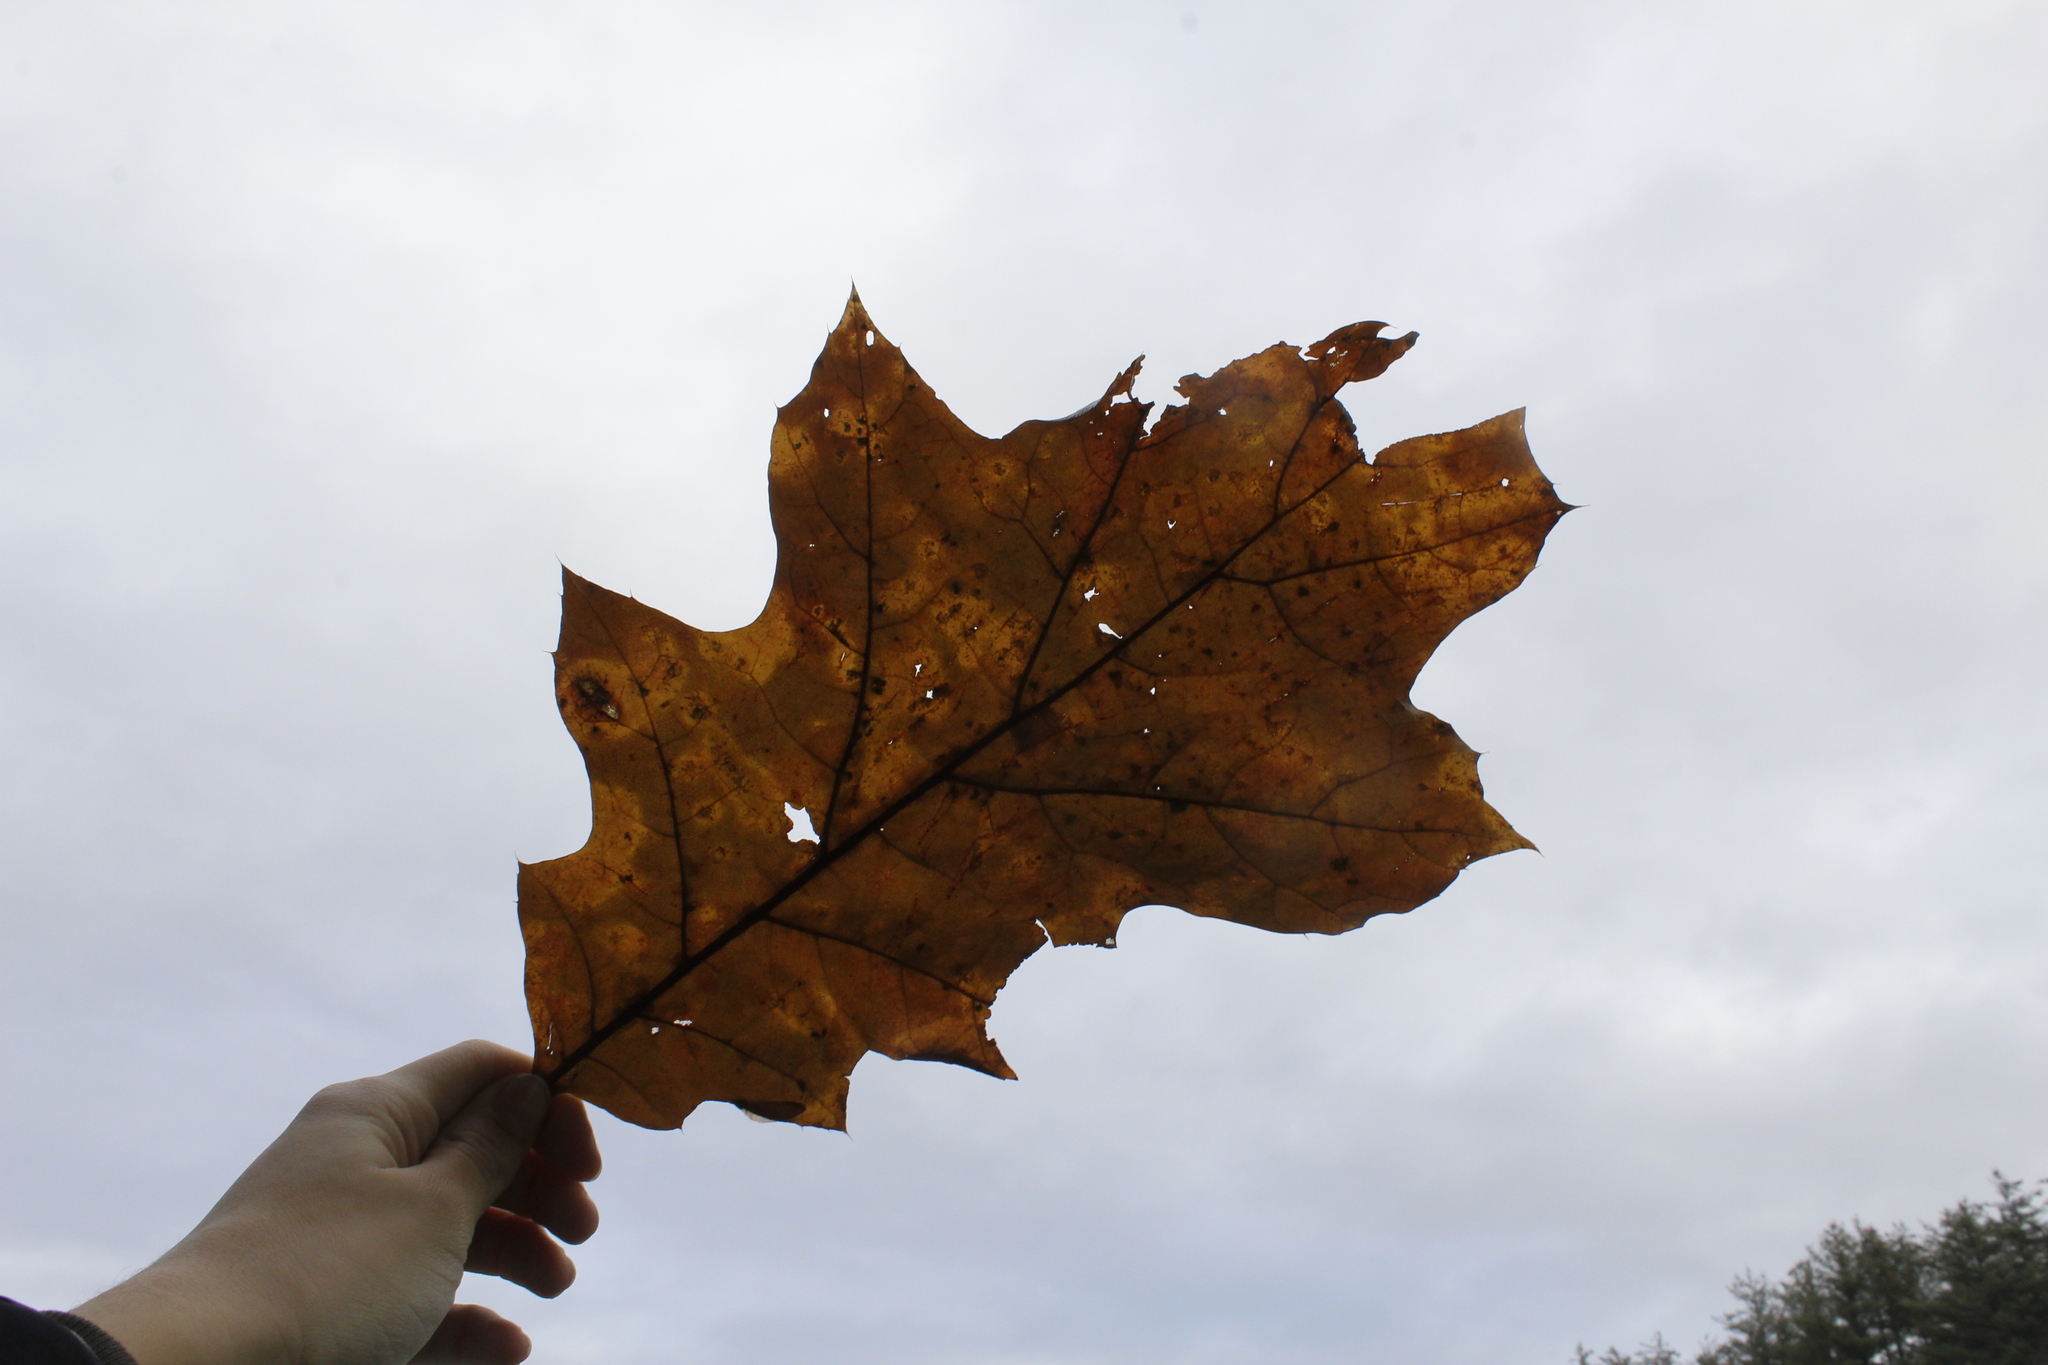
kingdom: Plantae
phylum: Tracheophyta
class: Magnoliopsida
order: Fagales
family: Fagaceae
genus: Quercus
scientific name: Quercus rubra
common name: Red oak
